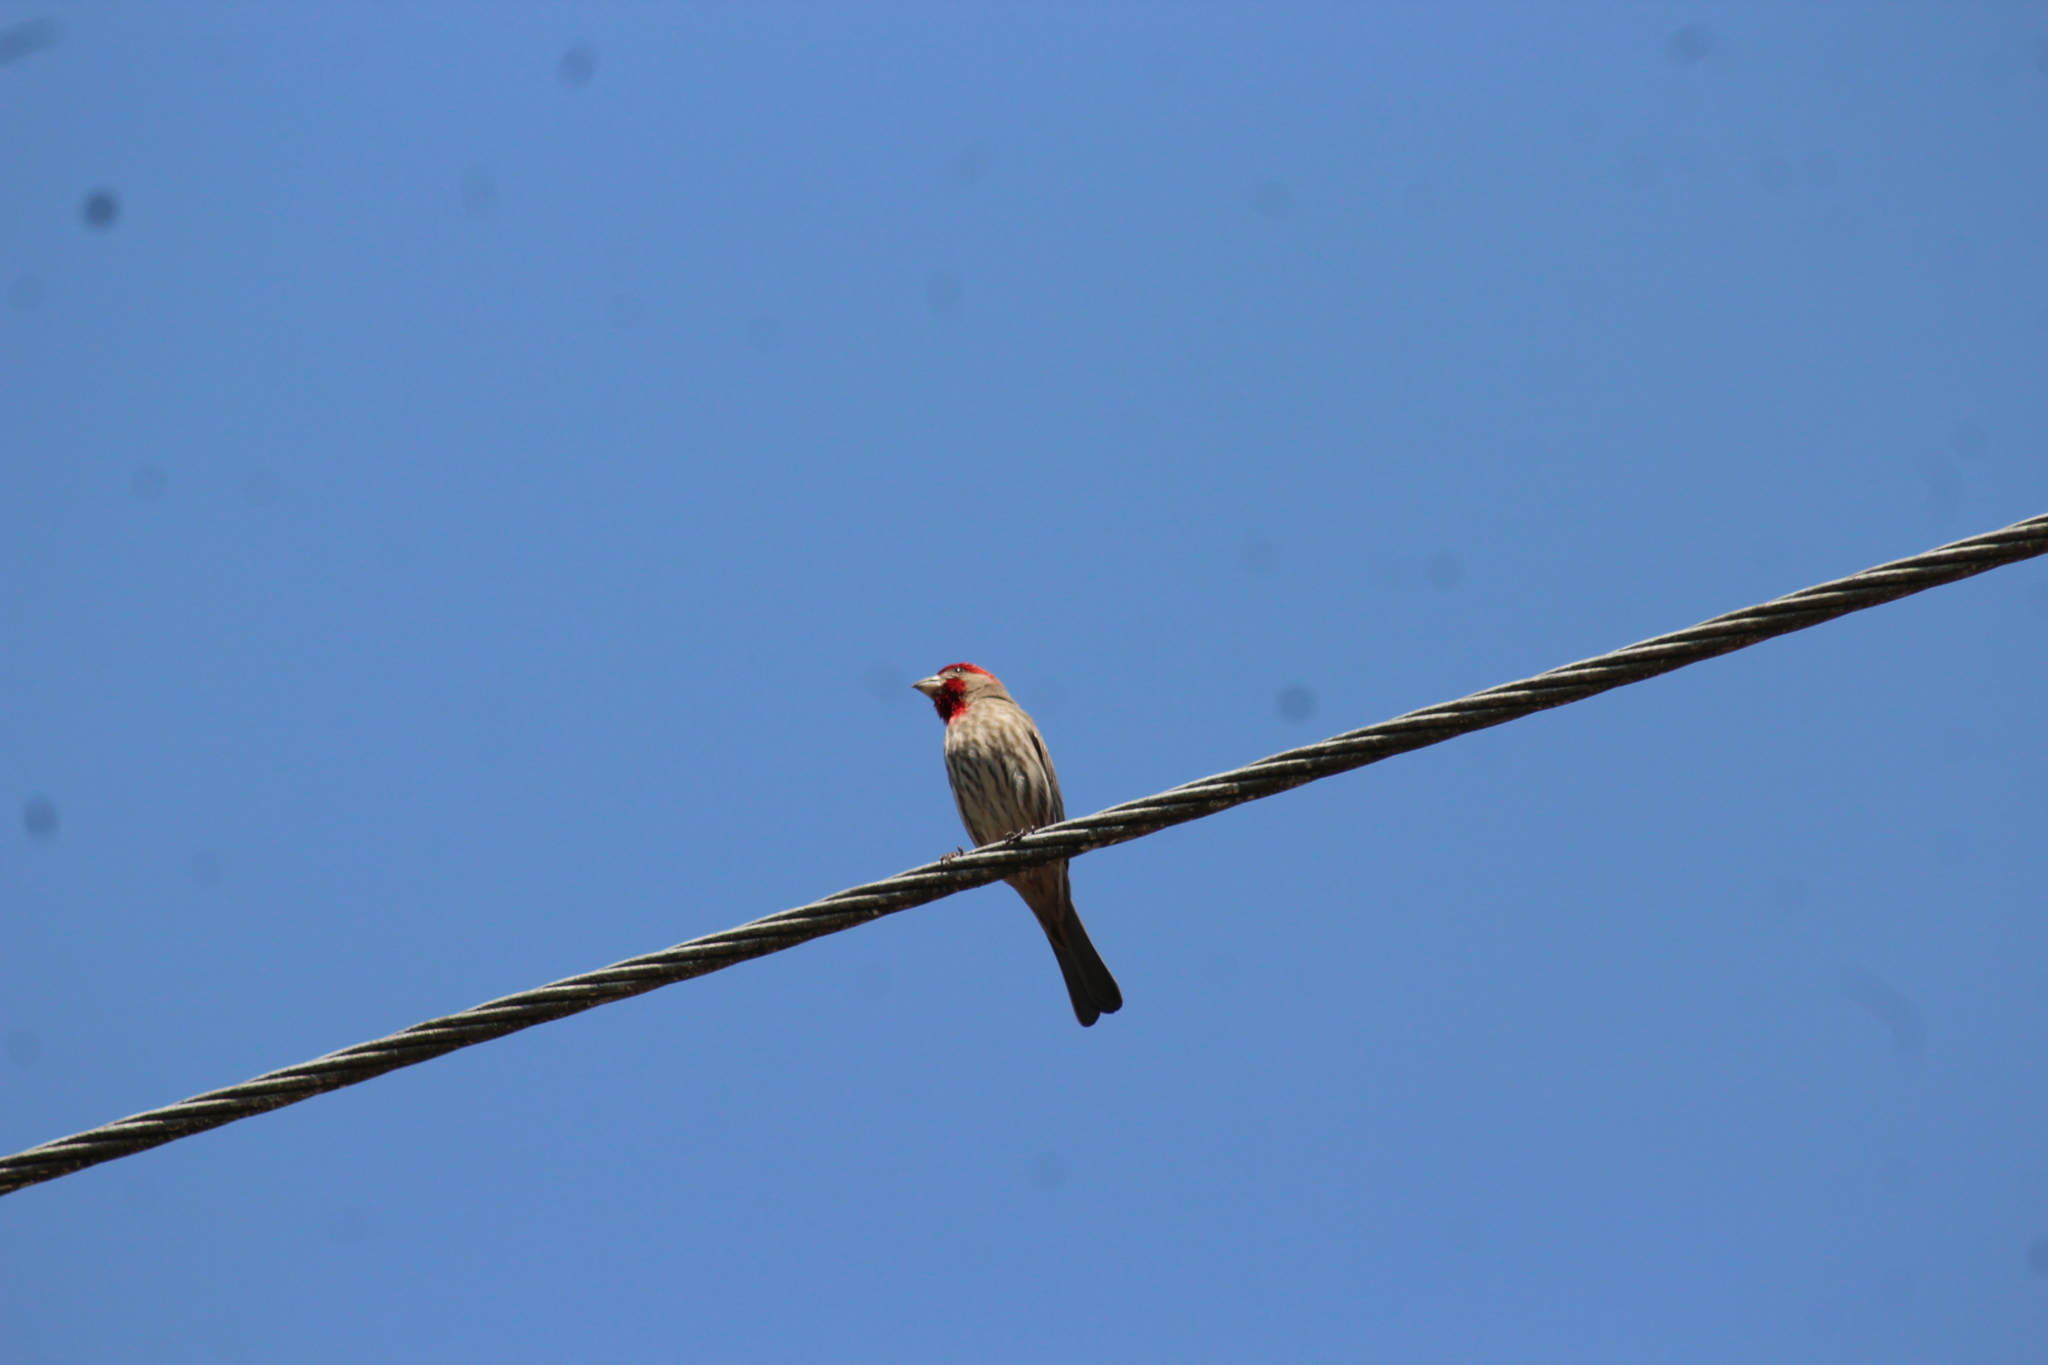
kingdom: Animalia
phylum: Chordata
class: Aves
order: Passeriformes
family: Fringillidae
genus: Haemorhous
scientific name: Haemorhous mexicanus
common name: House finch
